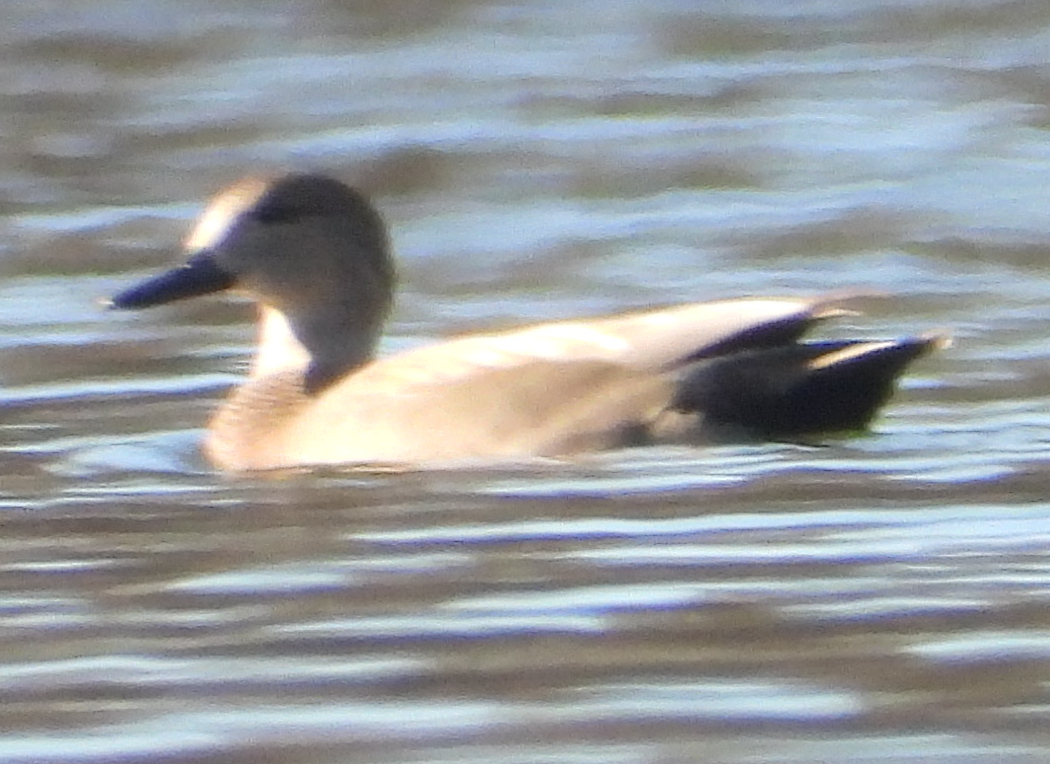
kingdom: Animalia
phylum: Chordata
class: Aves
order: Anseriformes
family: Anatidae
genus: Mareca
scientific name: Mareca strepera
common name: Gadwall
